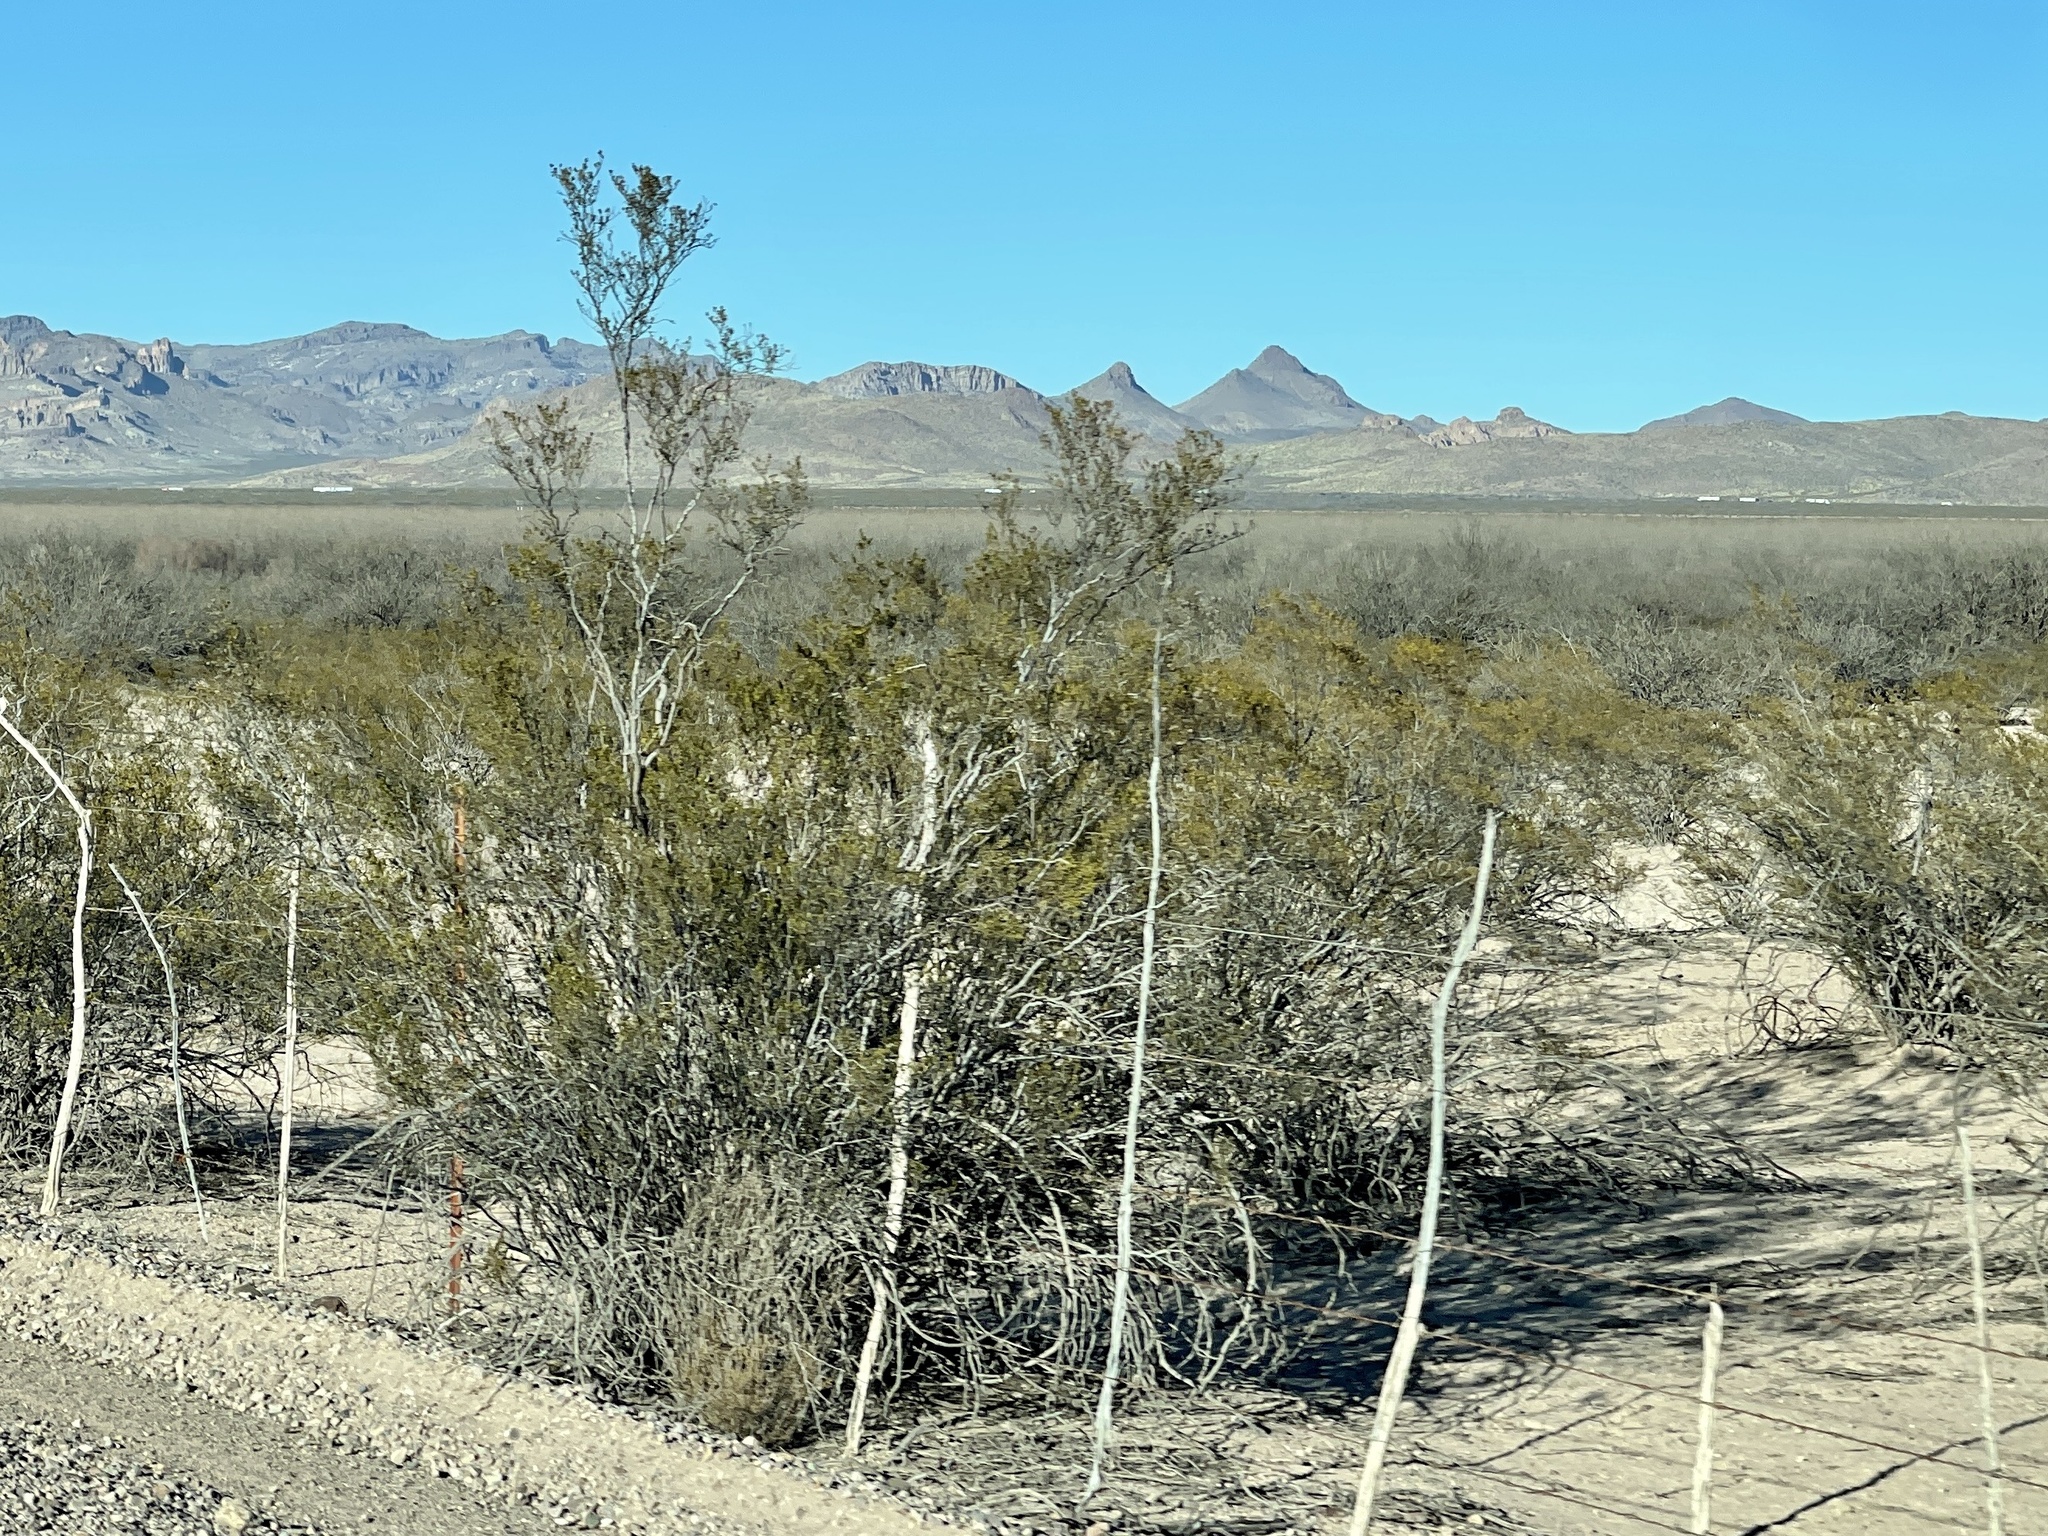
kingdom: Plantae
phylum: Tracheophyta
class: Magnoliopsida
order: Zygophyllales
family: Zygophyllaceae
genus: Larrea
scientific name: Larrea tridentata
